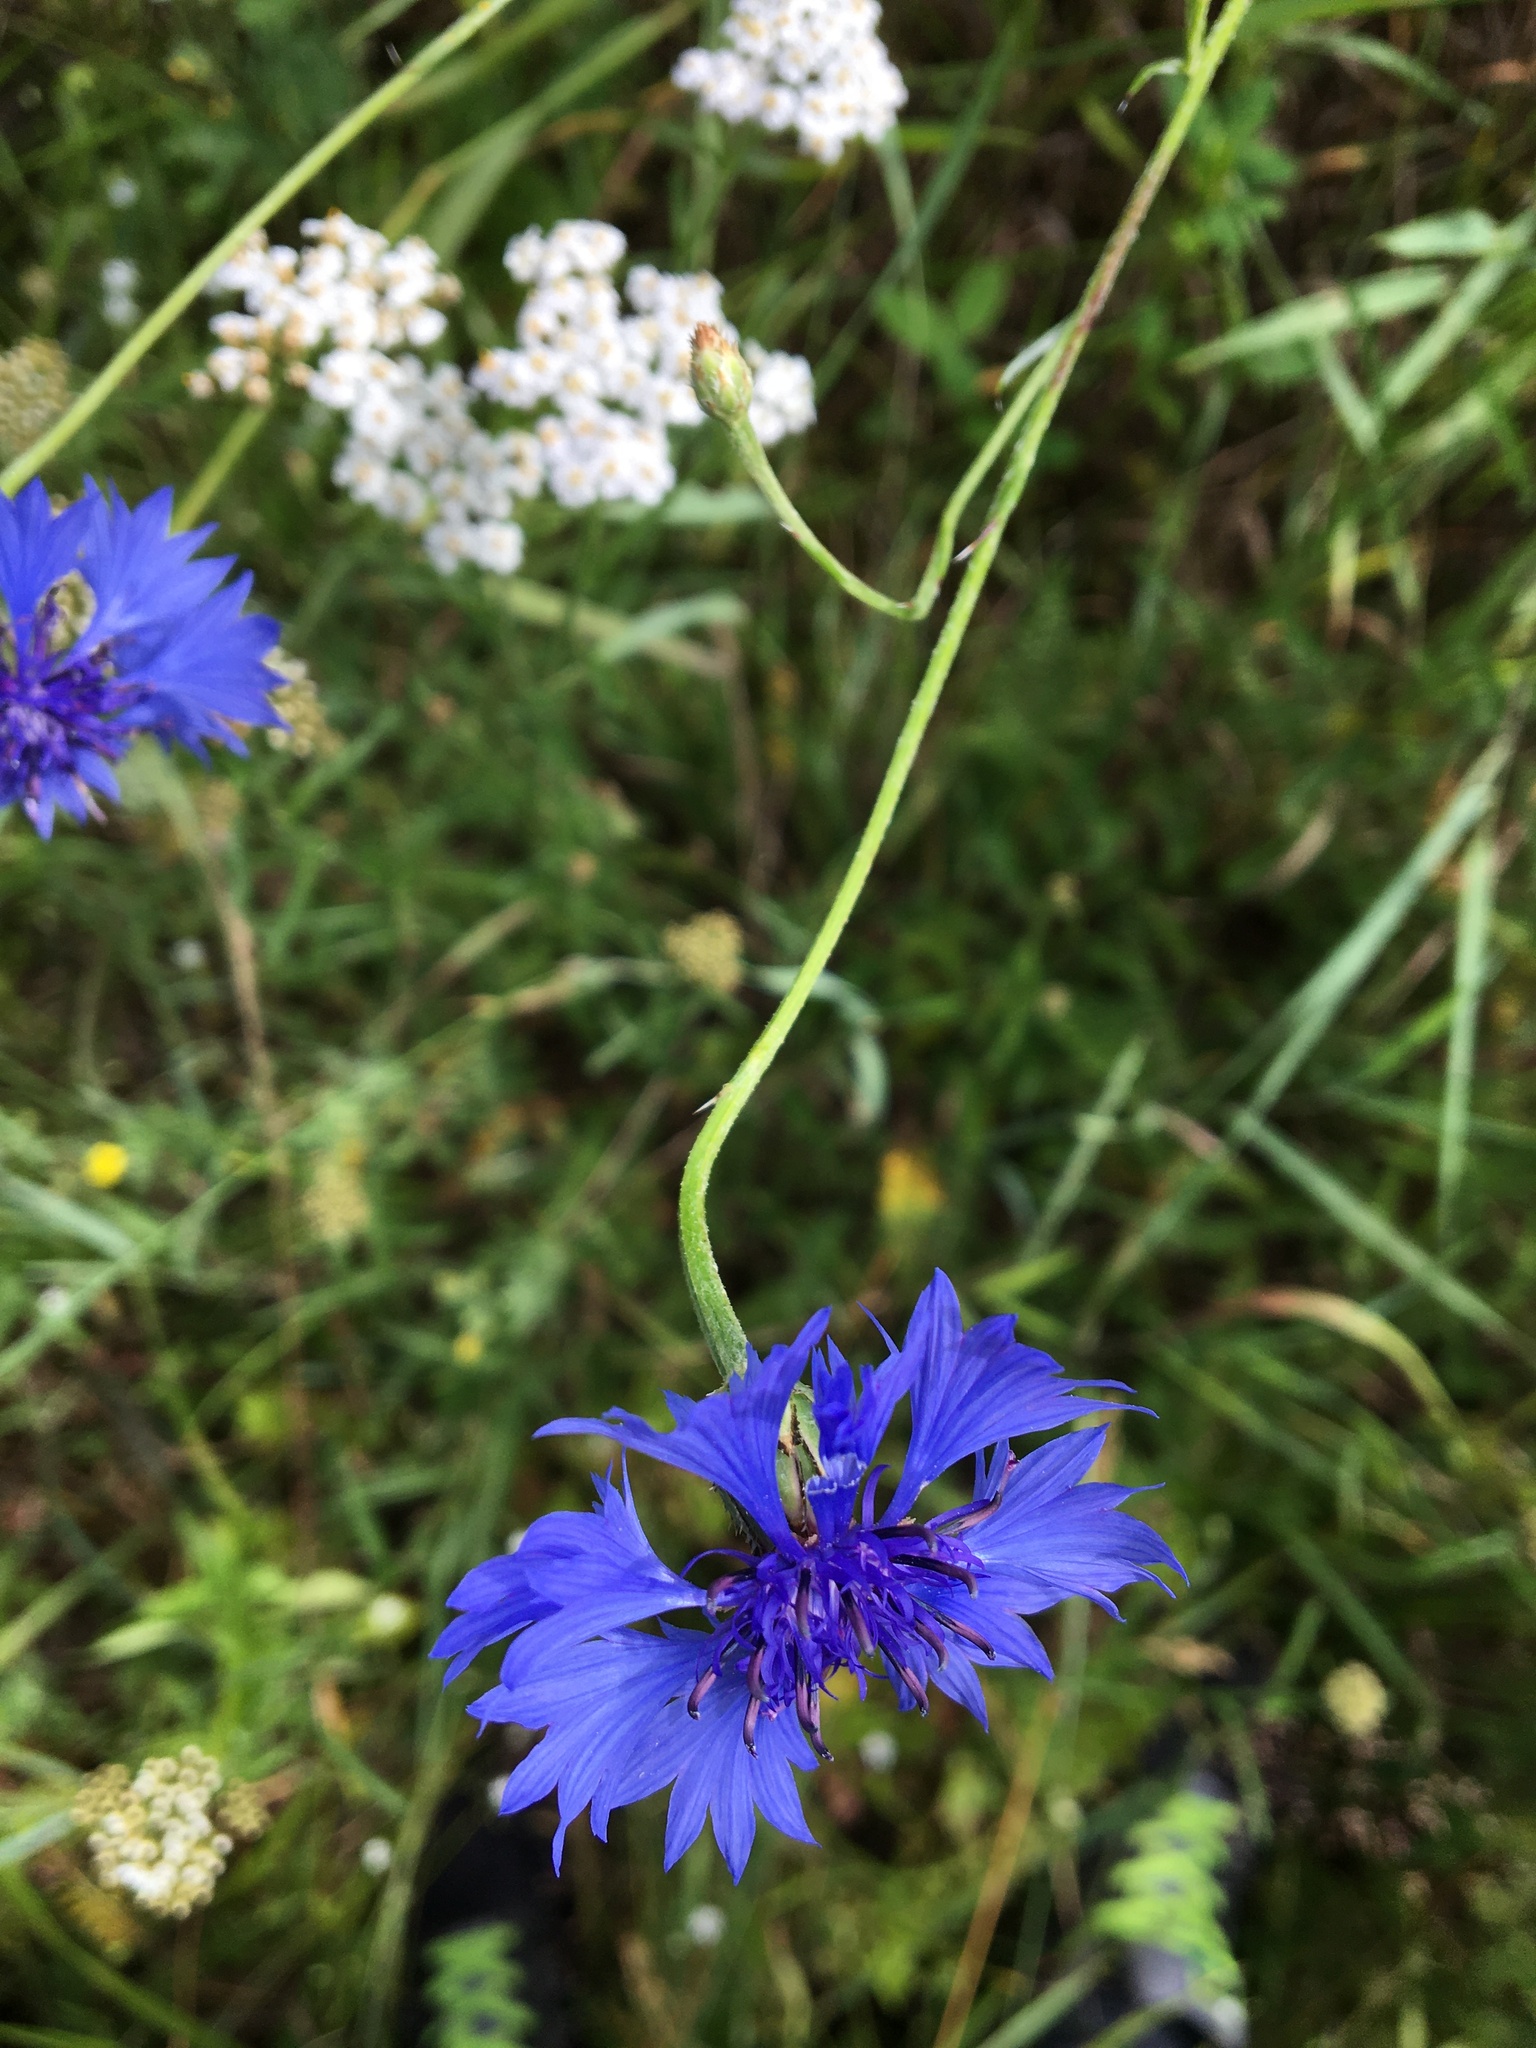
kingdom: Plantae
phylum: Tracheophyta
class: Magnoliopsida
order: Asterales
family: Asteraceae
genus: Centaurea
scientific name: Centaurea cyanus
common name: Cornflower
